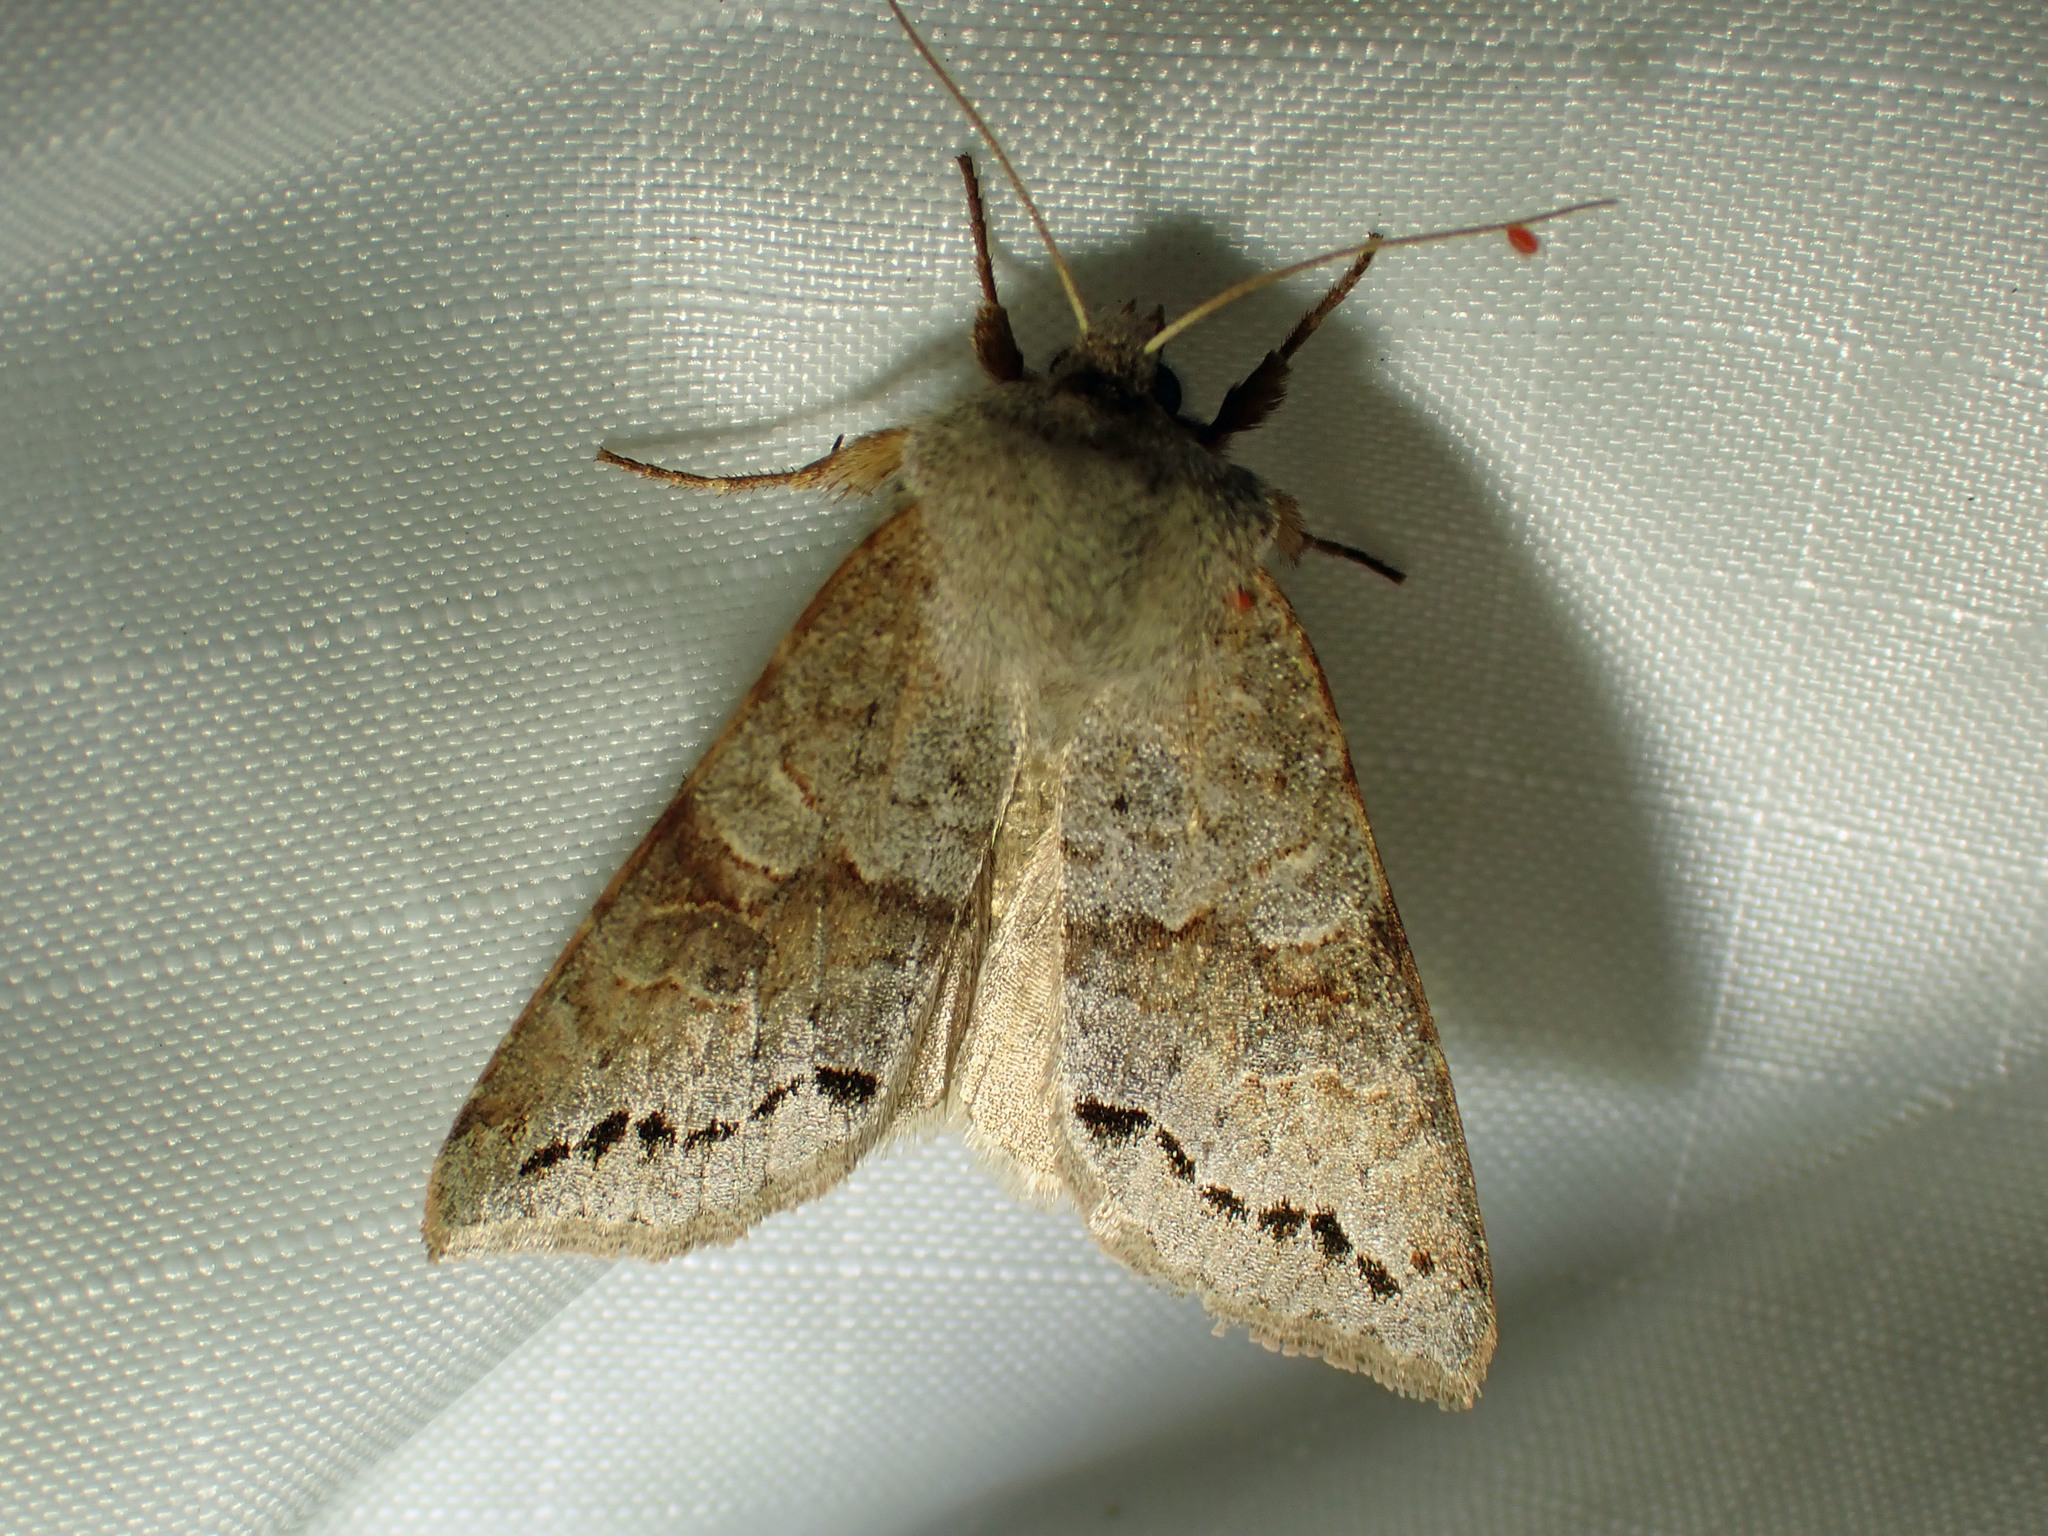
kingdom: Animalia
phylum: Arthropoda
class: Insecta
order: Lepidoptera
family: Noctuidae
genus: Orthosia
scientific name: Orthosia revicta
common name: Rusty whitesided caterpillar
